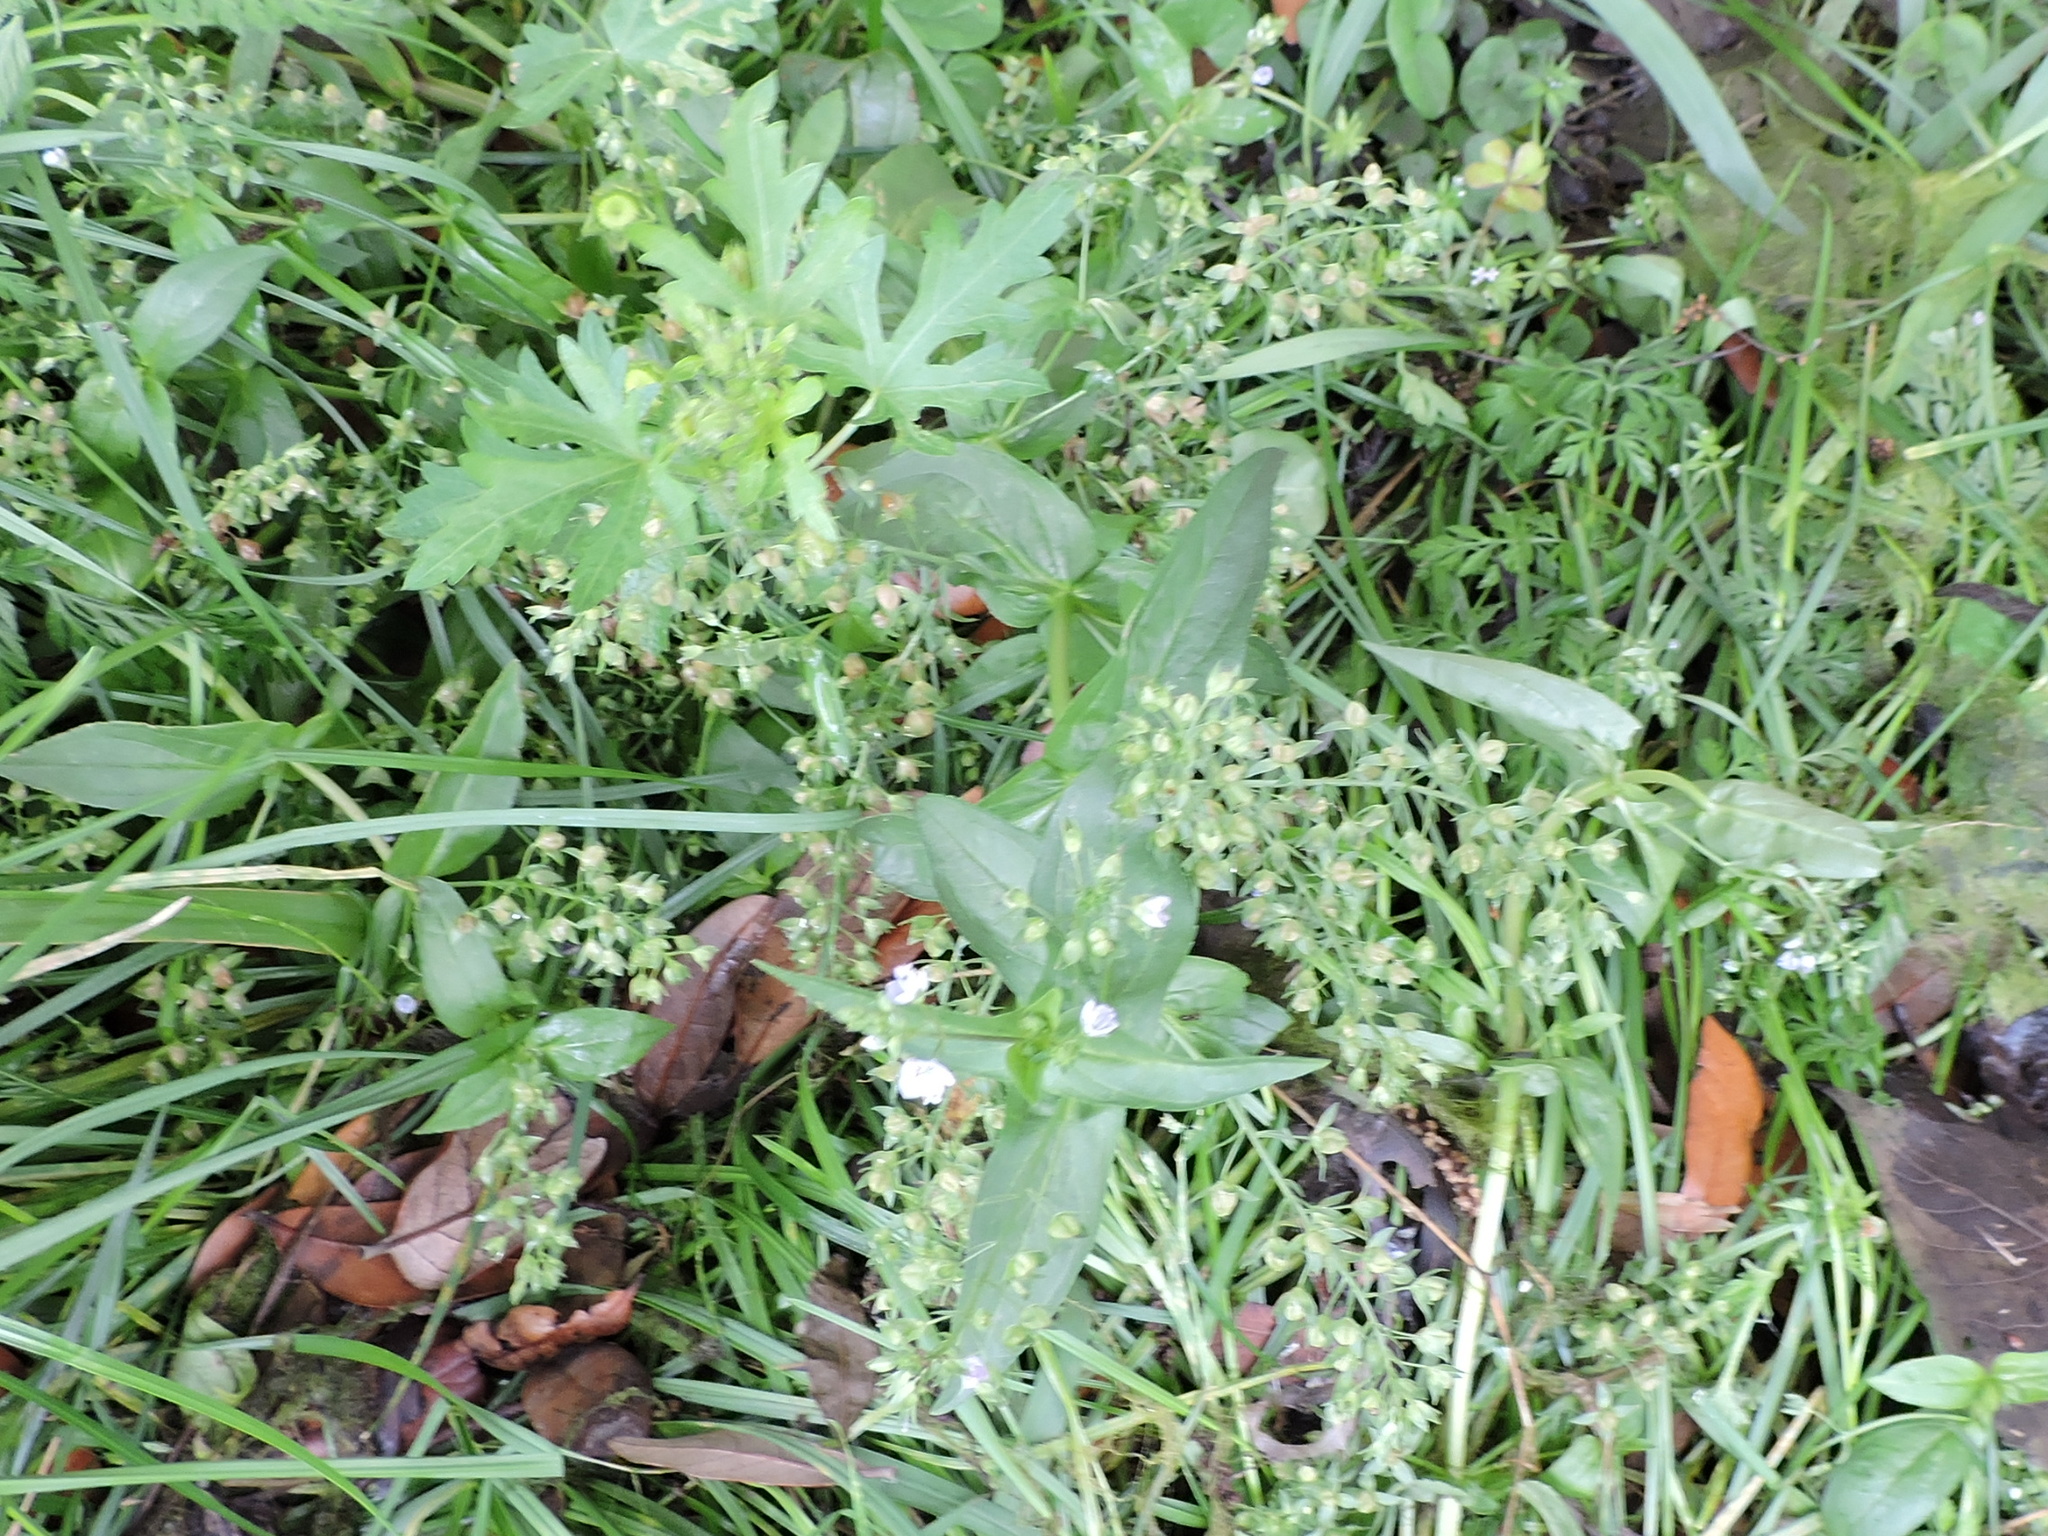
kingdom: Plantae
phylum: Tracheophyta
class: Magnoliopsida
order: Lamiales
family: Plantaginaceae
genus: Veronica
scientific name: Veronica anagallis-aquatica
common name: Water speedwell
